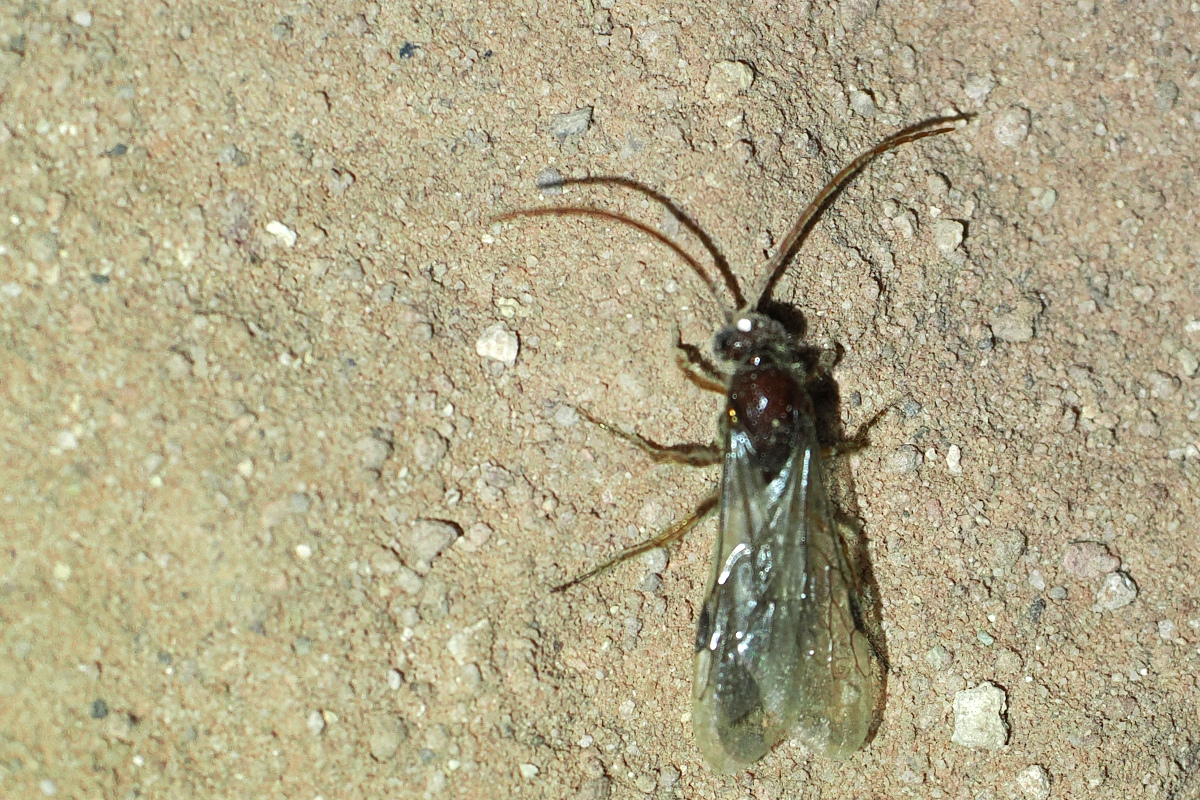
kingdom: Animalia
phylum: Arthropoda
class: Insecta
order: Hymenoptera
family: Tiphiidae
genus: Acanthetropis
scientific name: Acanthetropis noctivaga
